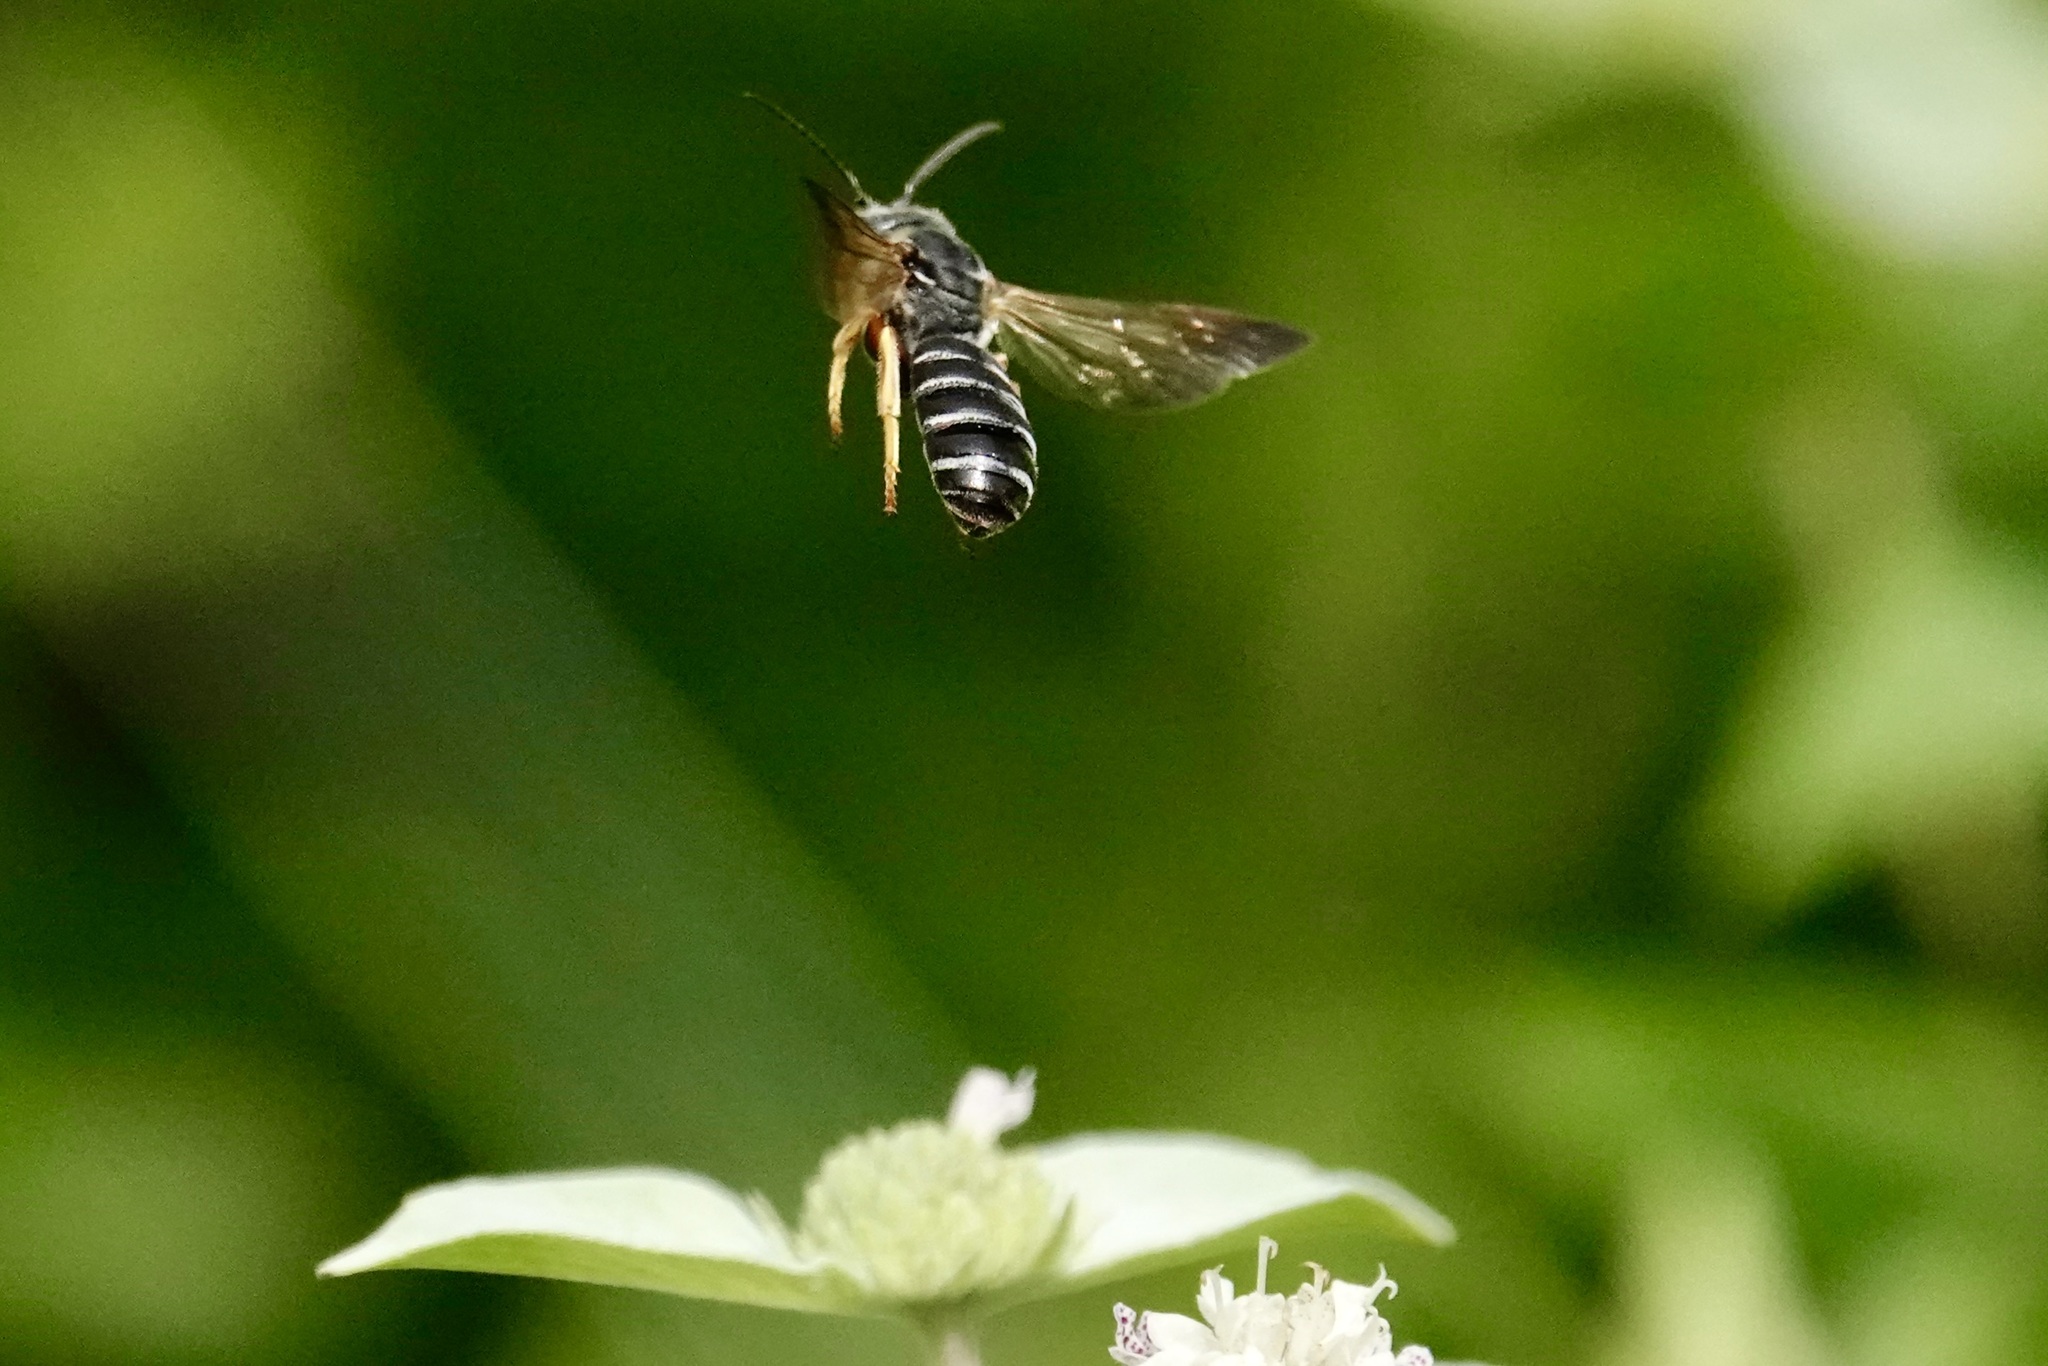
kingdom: Animalia
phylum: Arthropoda
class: Insecta
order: Hymenoptera
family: Halictidae
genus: Halictus
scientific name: Halictus parallelus
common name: Parallel-striped sweat bee
